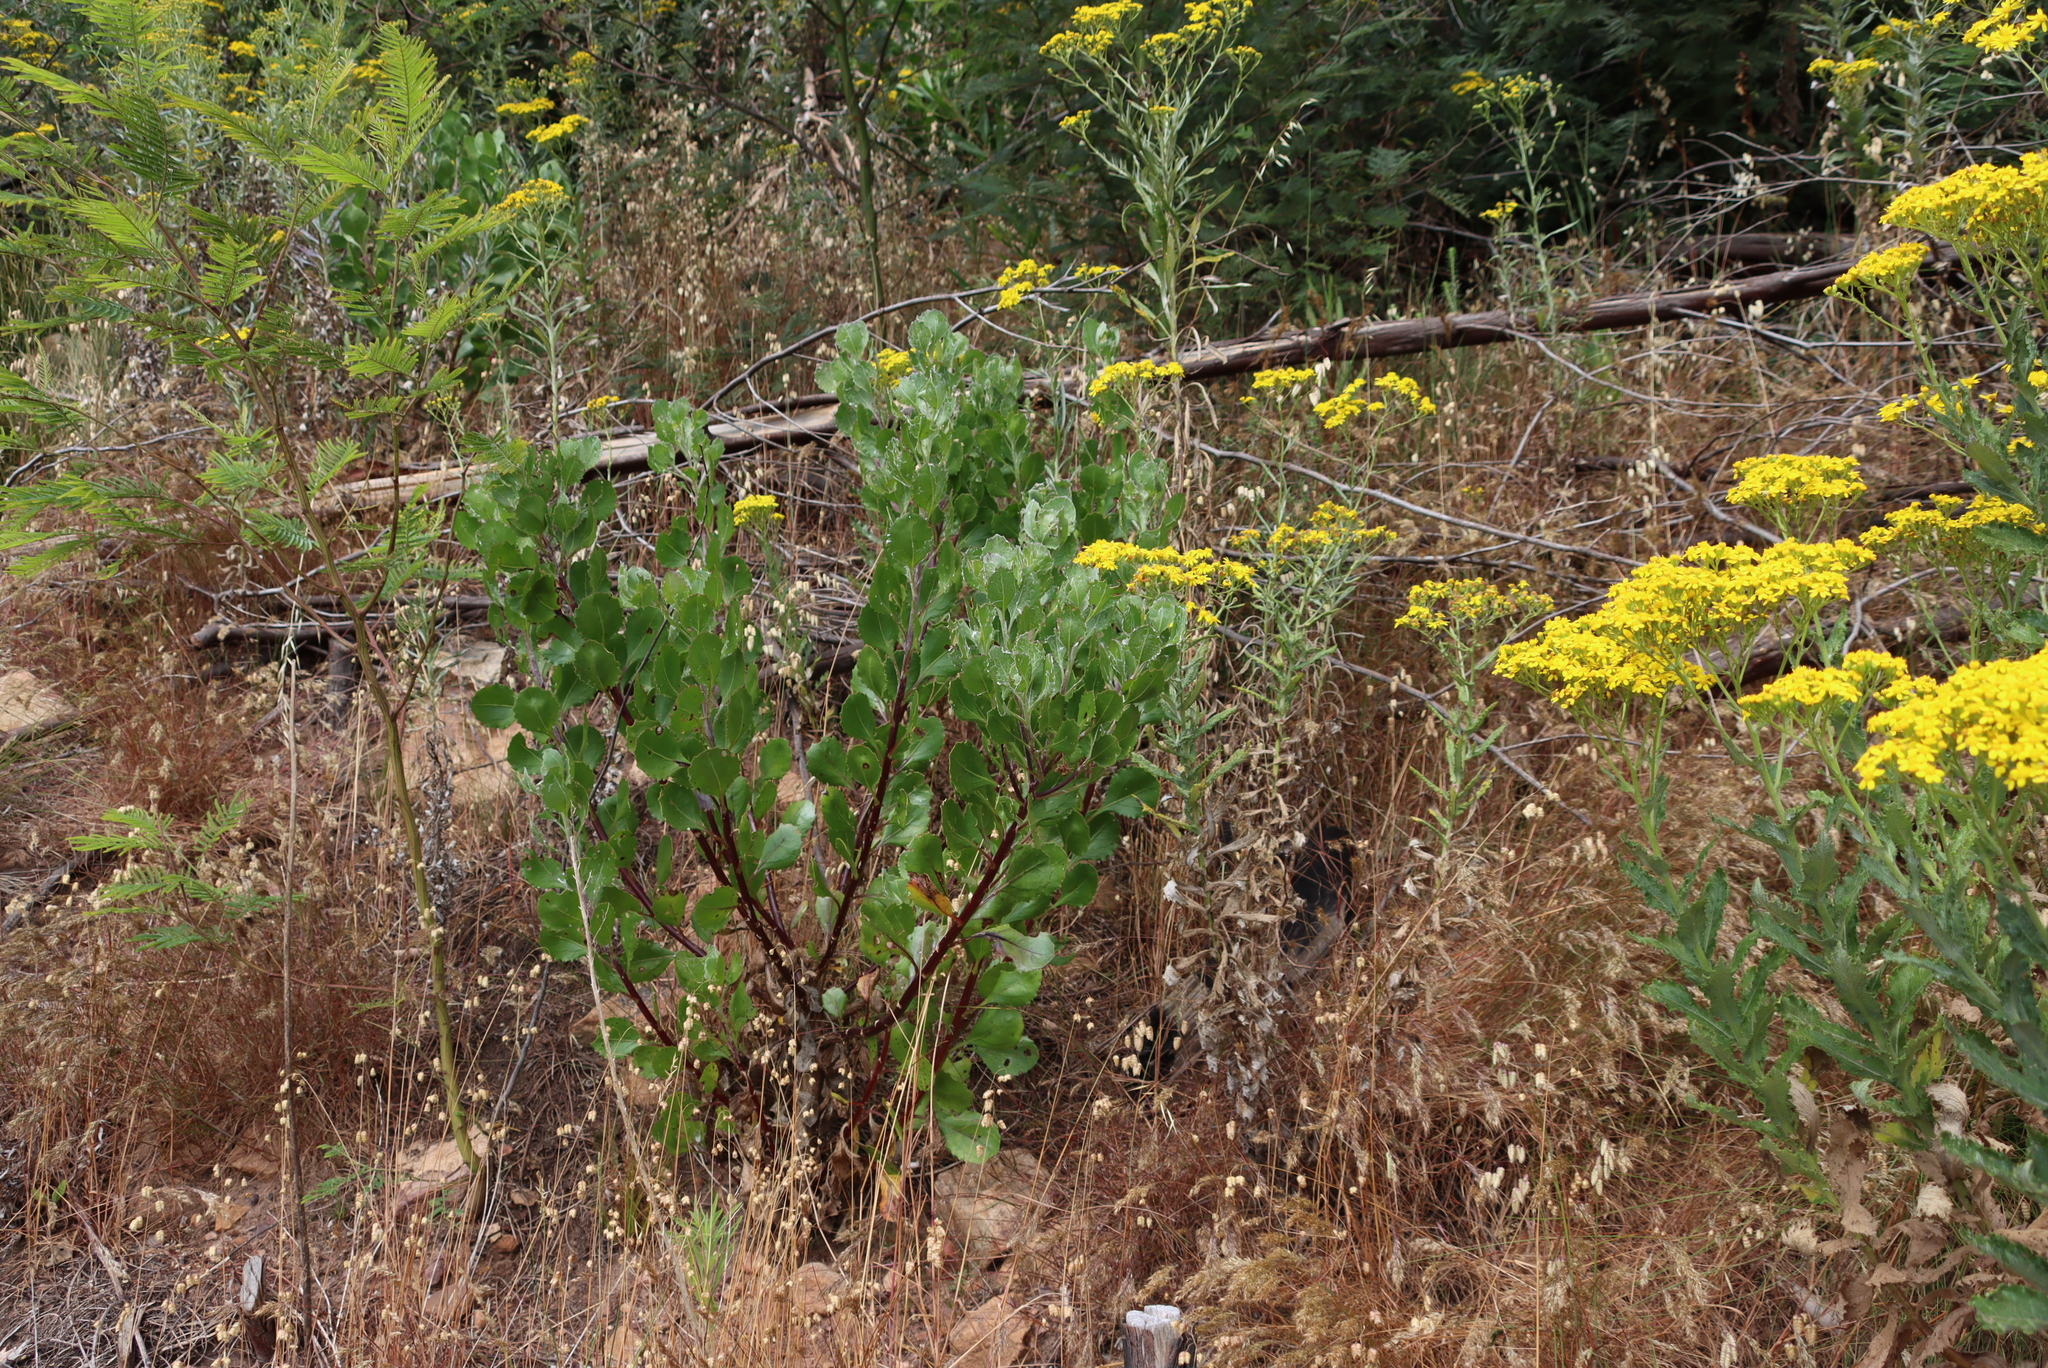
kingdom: Plantae
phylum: Tracheophyta
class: Magnoliopsida
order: Asterales
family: Asteraceae
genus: Osteospermum
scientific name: Osteospermum moniliferum
